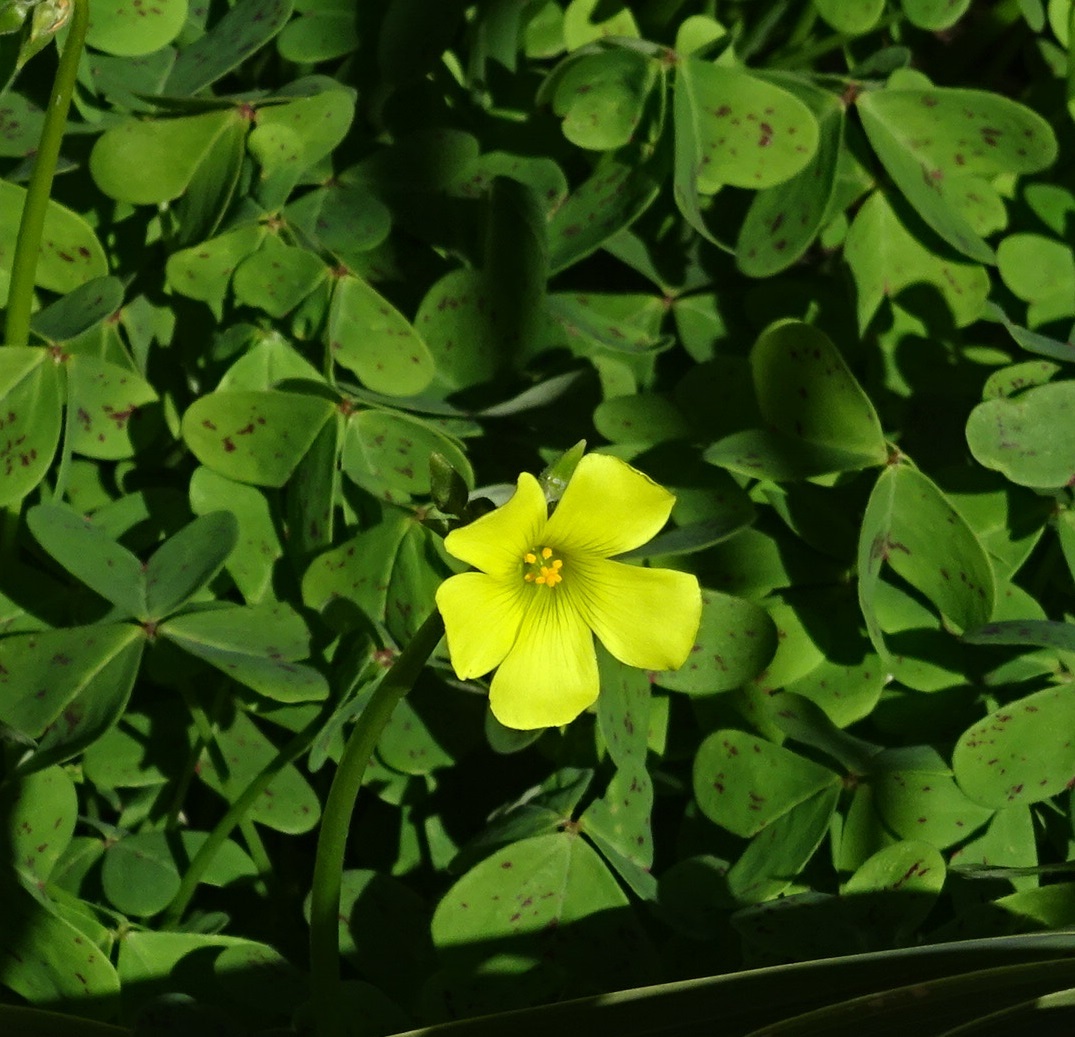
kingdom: Plantae
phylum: Tracheophyta
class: Magnoliopsida
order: Oxalidales
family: Oxalidaceae
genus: Oxalis
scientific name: Oxalis pes-caprae
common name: Bermuda-buttercup
